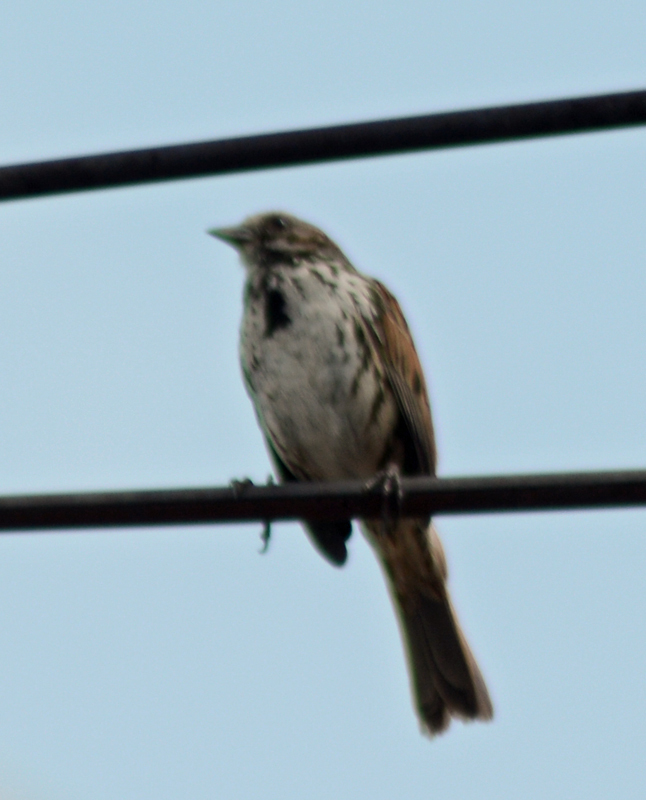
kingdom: Animalia
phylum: Chordata
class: Aves
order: Passeriformes
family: Passerellidae
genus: Melospiza
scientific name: Melospiza melodia
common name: Song sparrow
